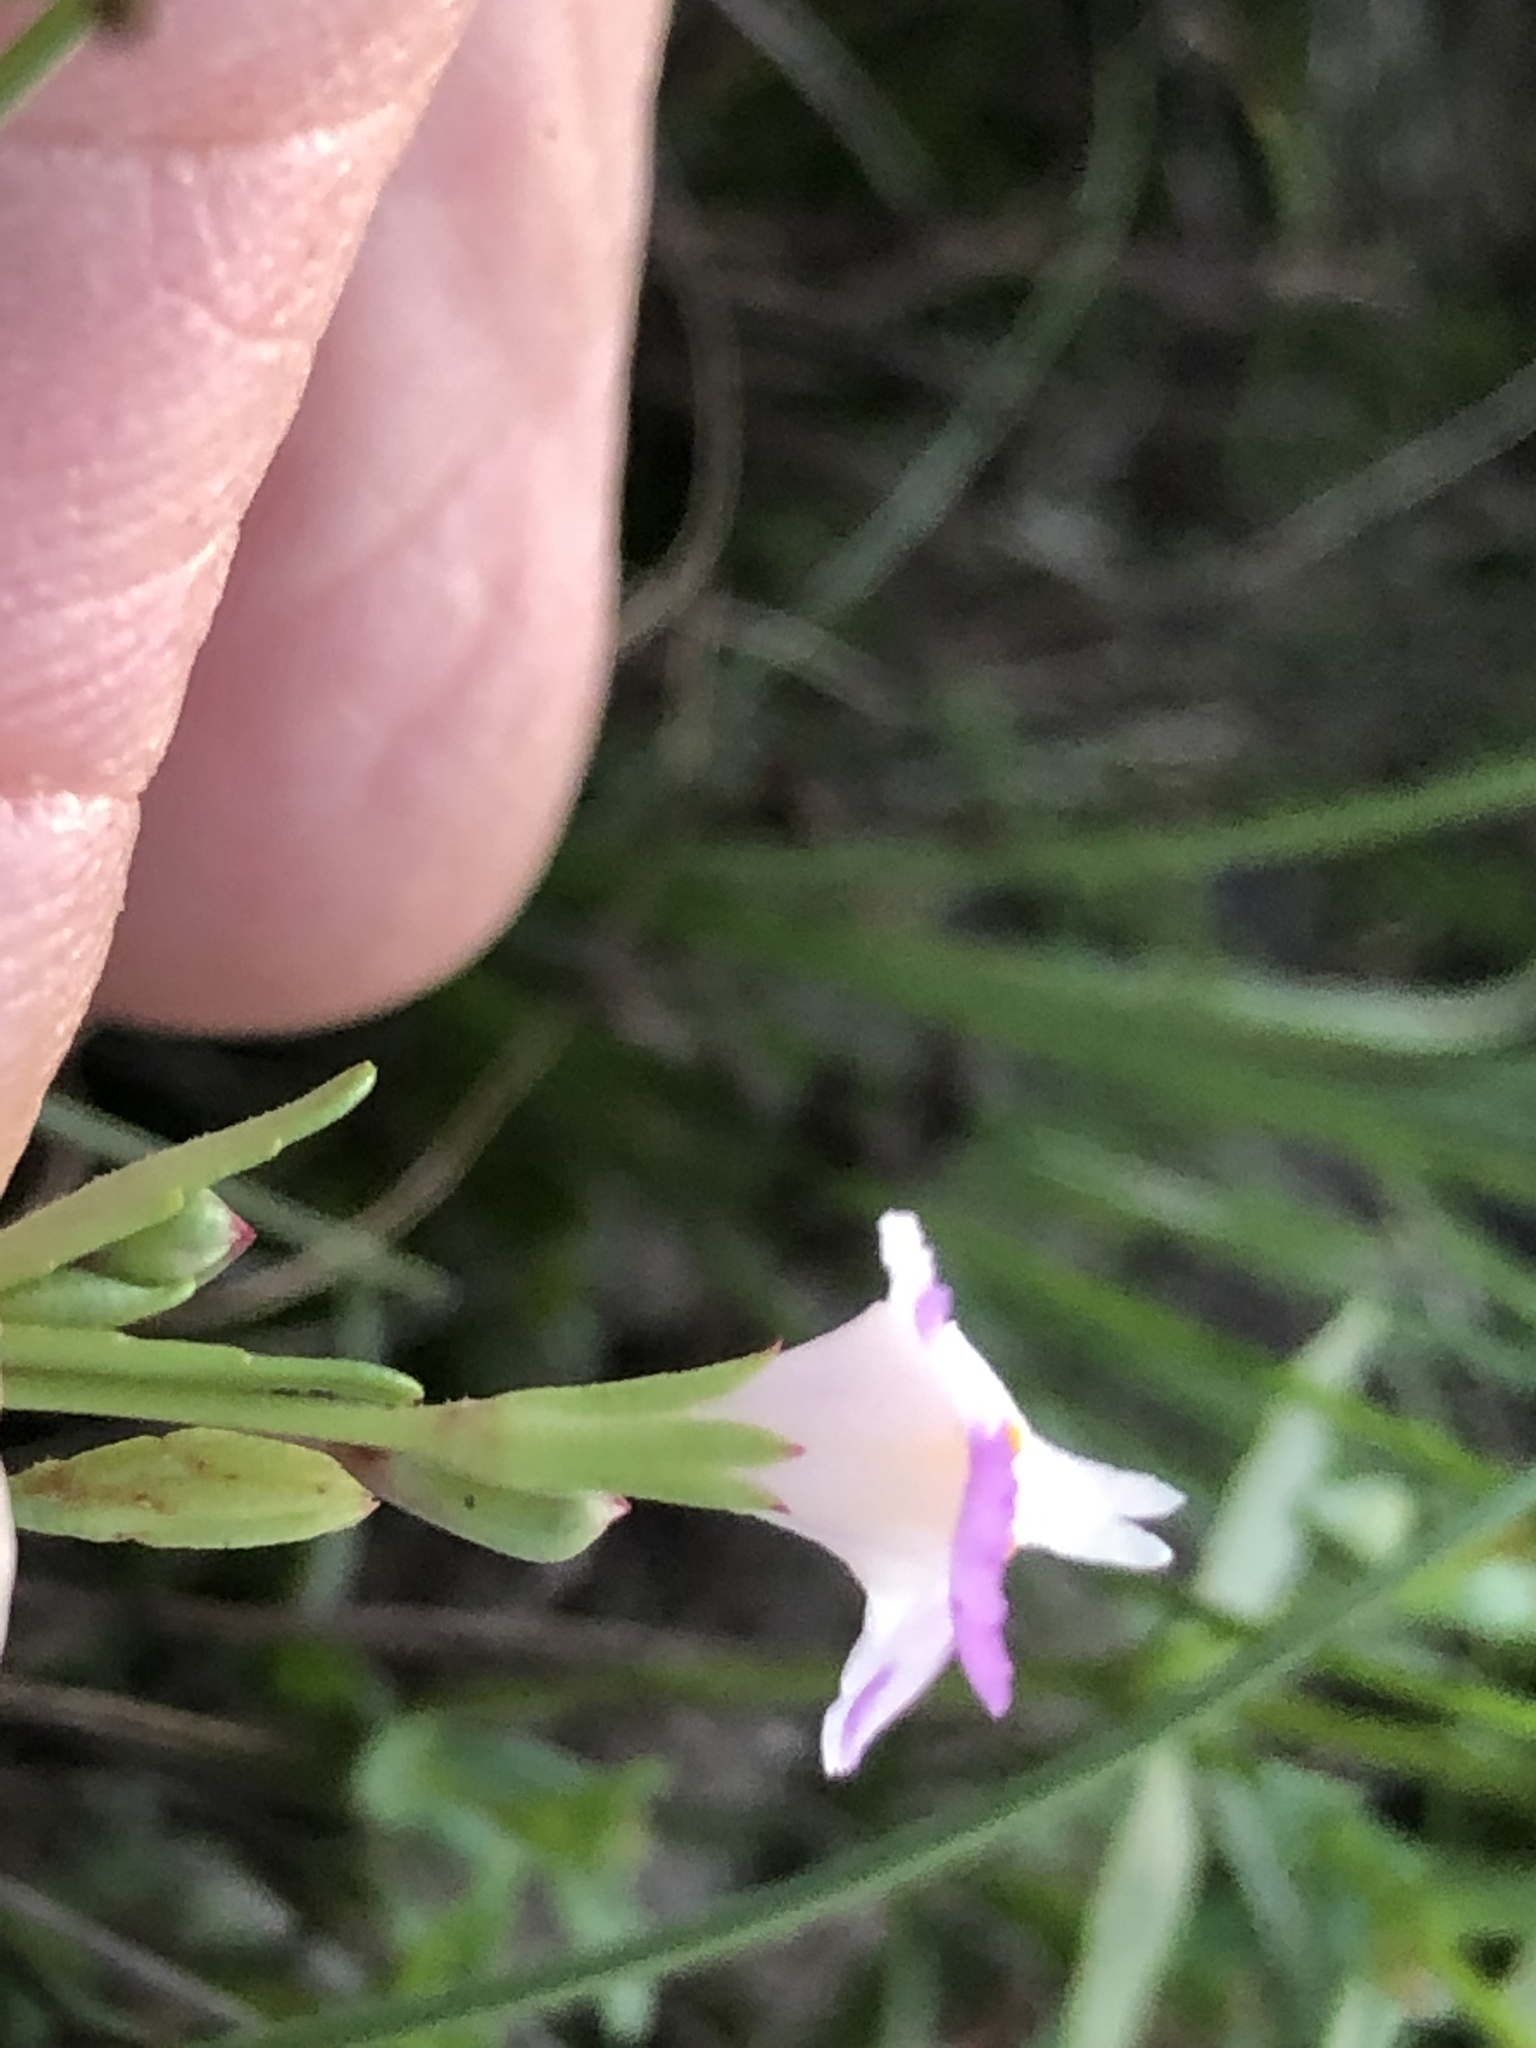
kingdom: Plantae
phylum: Tracheophyta
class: Magnoliopsida
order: Lamiales
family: Linderniaceae
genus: Linderniella
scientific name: Linderniella nana
